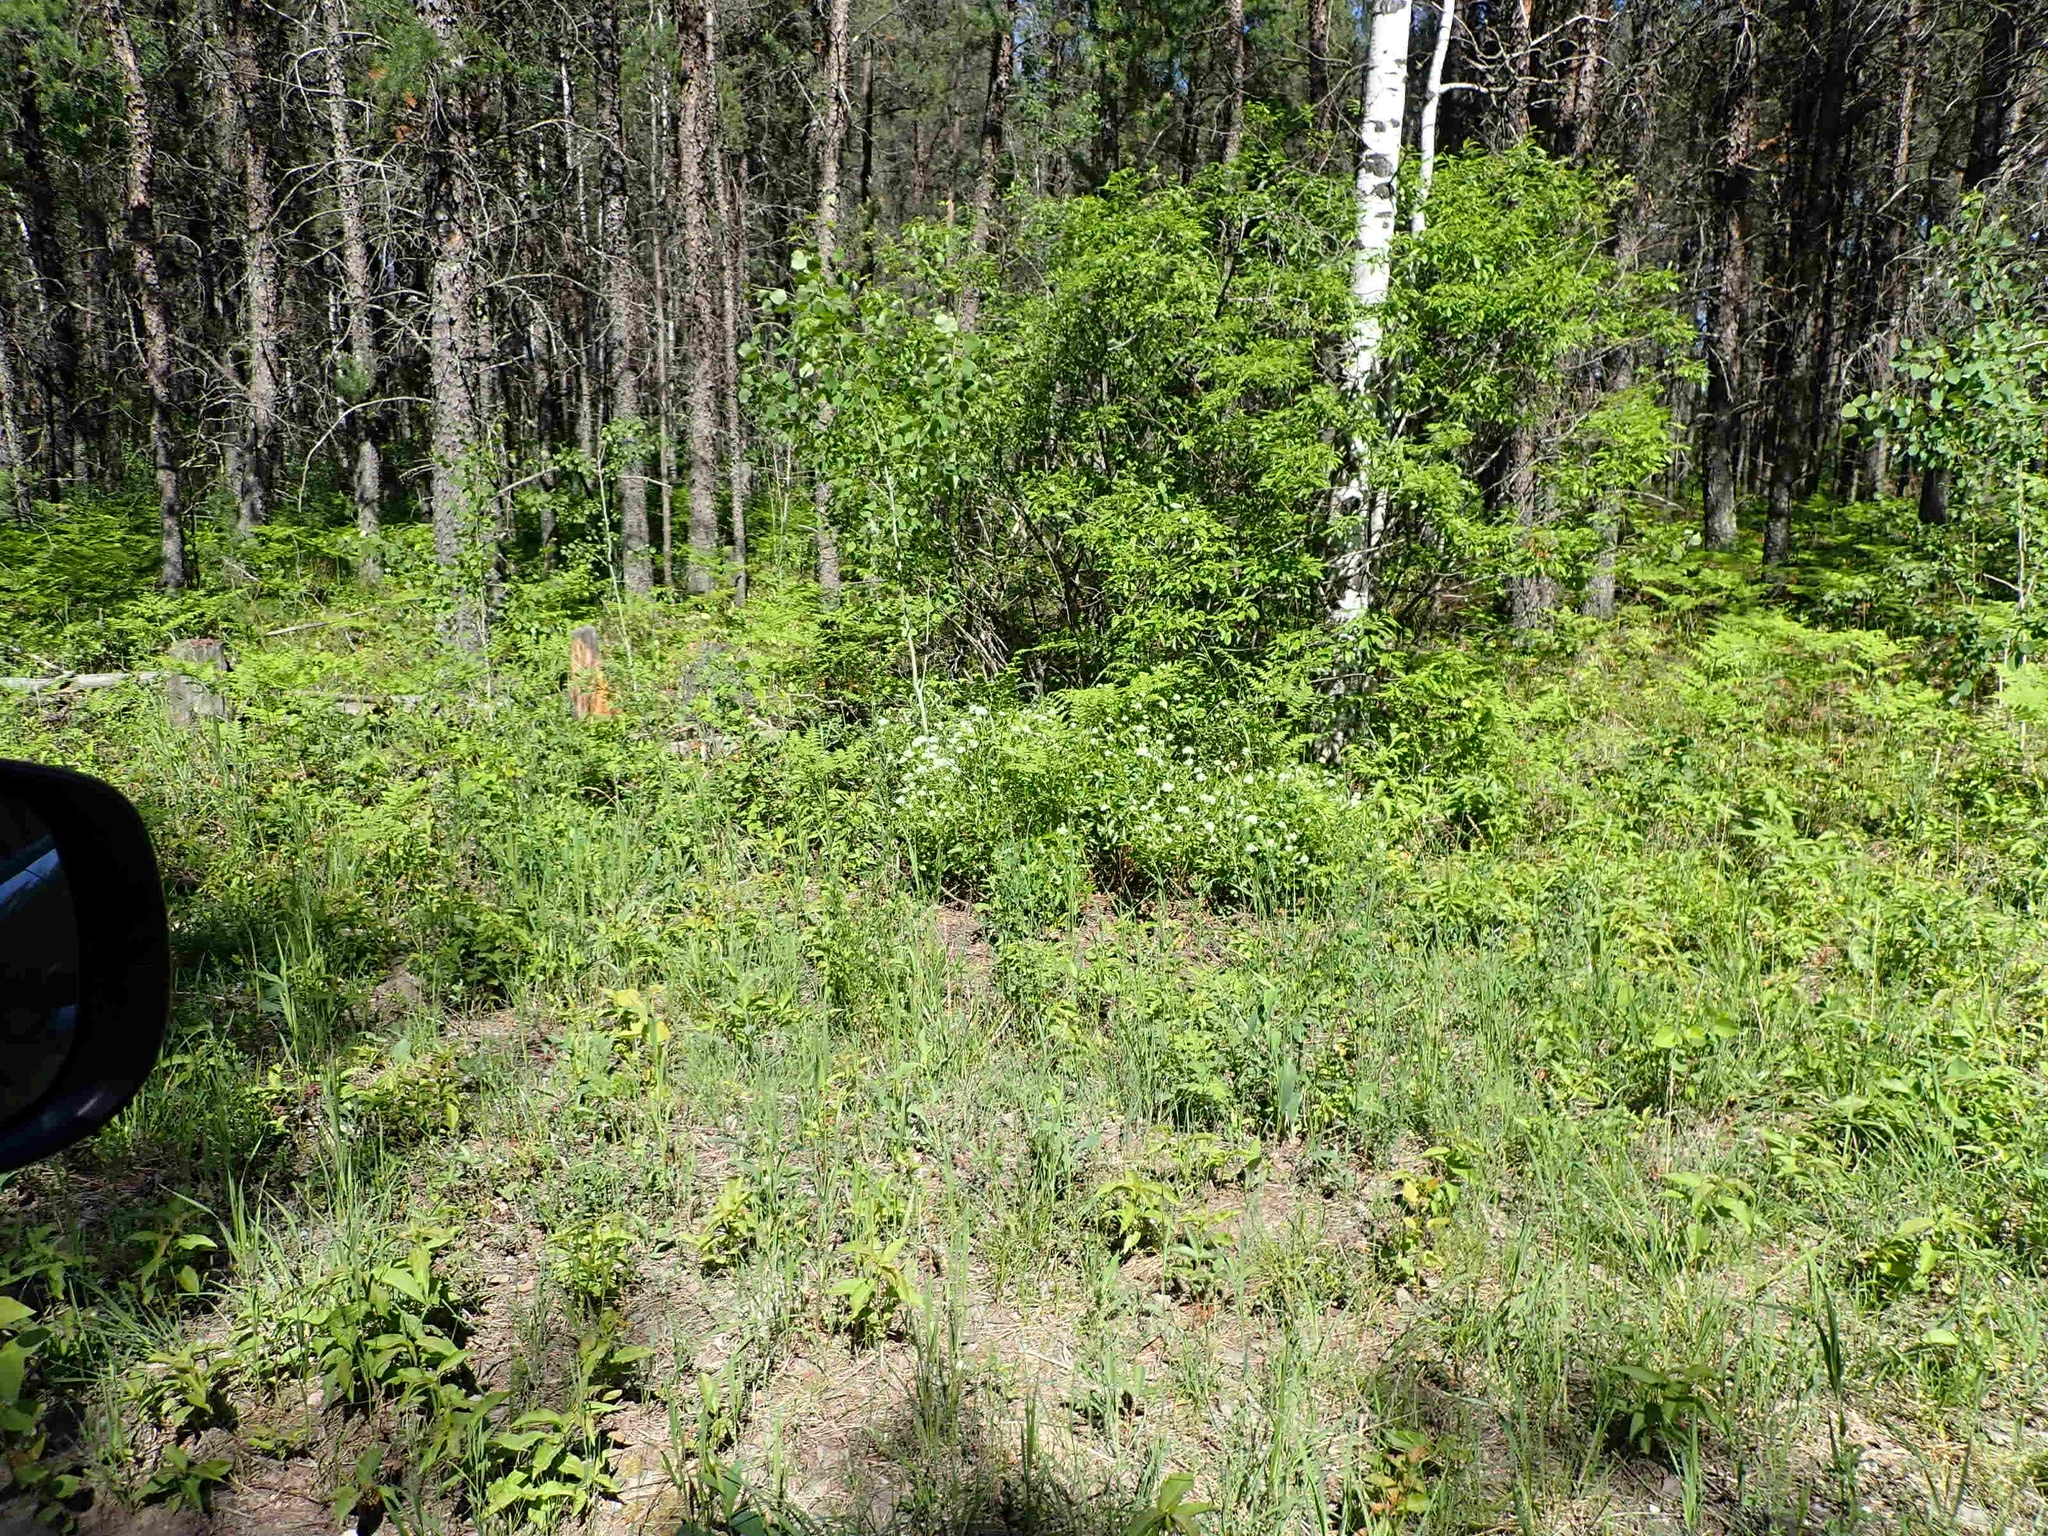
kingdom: Plantae
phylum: Tracheophyta
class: Magnoliopsida
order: Rosales
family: Rhamnaceae
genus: Ceanothus
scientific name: Ceanothus herbaceus
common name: Inland ceanothus
